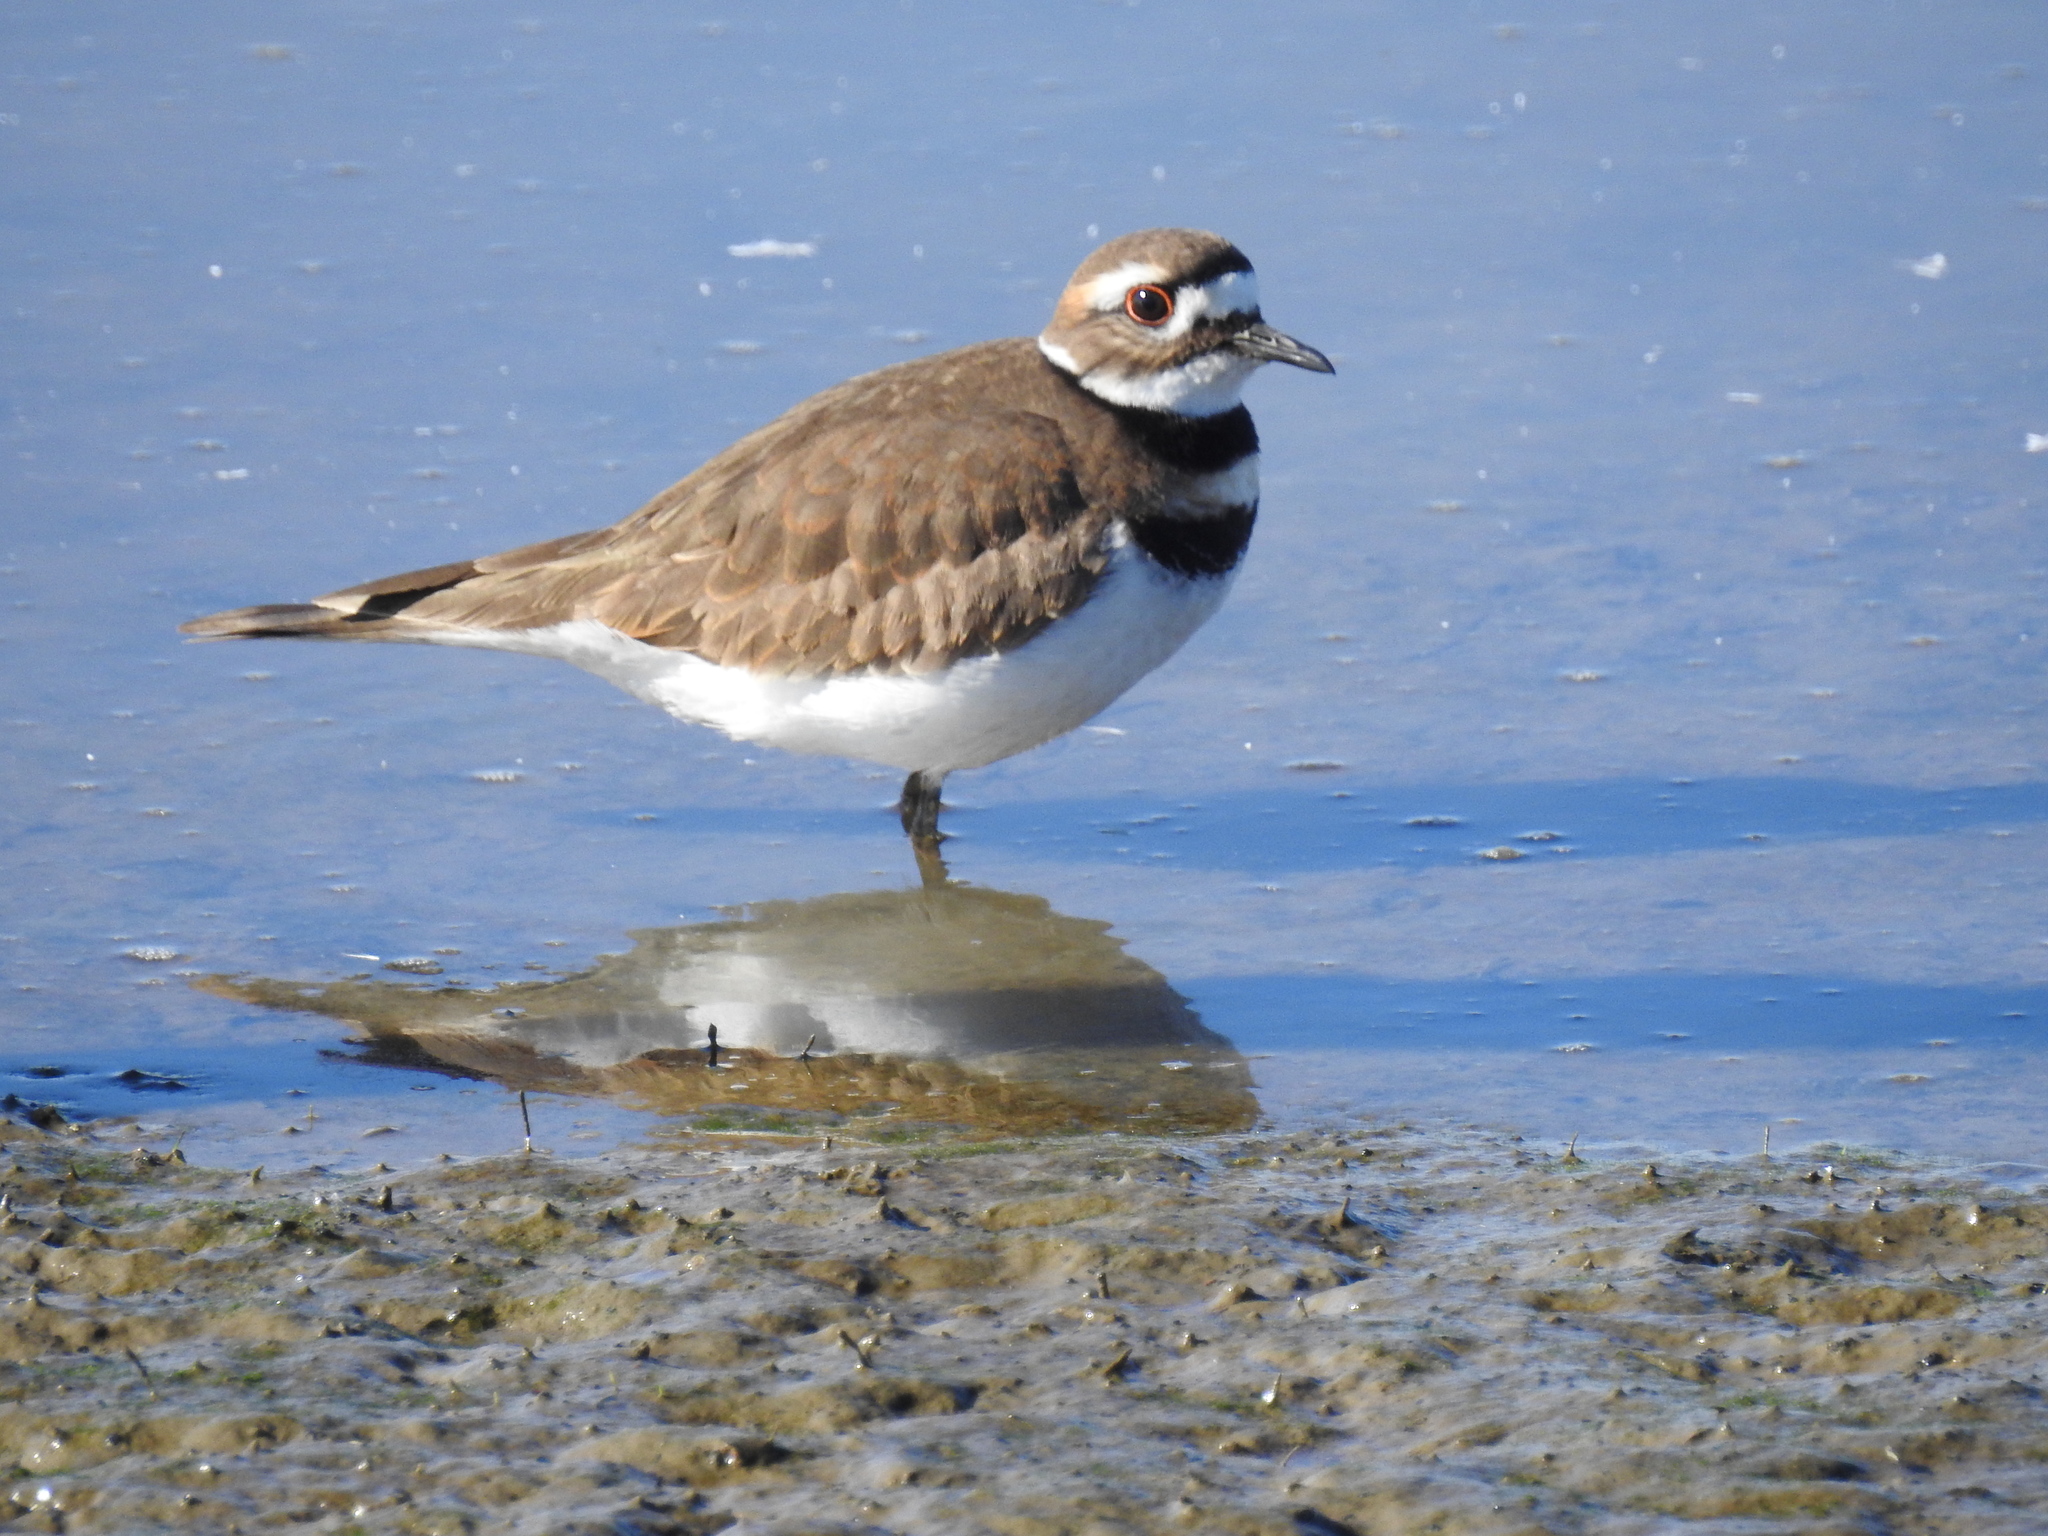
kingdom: Animalia
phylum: Chordata
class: Aves
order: Charadriiformes
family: Charadriidae
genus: Charadrius
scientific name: Charadrius vociferus
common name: Killdeer
